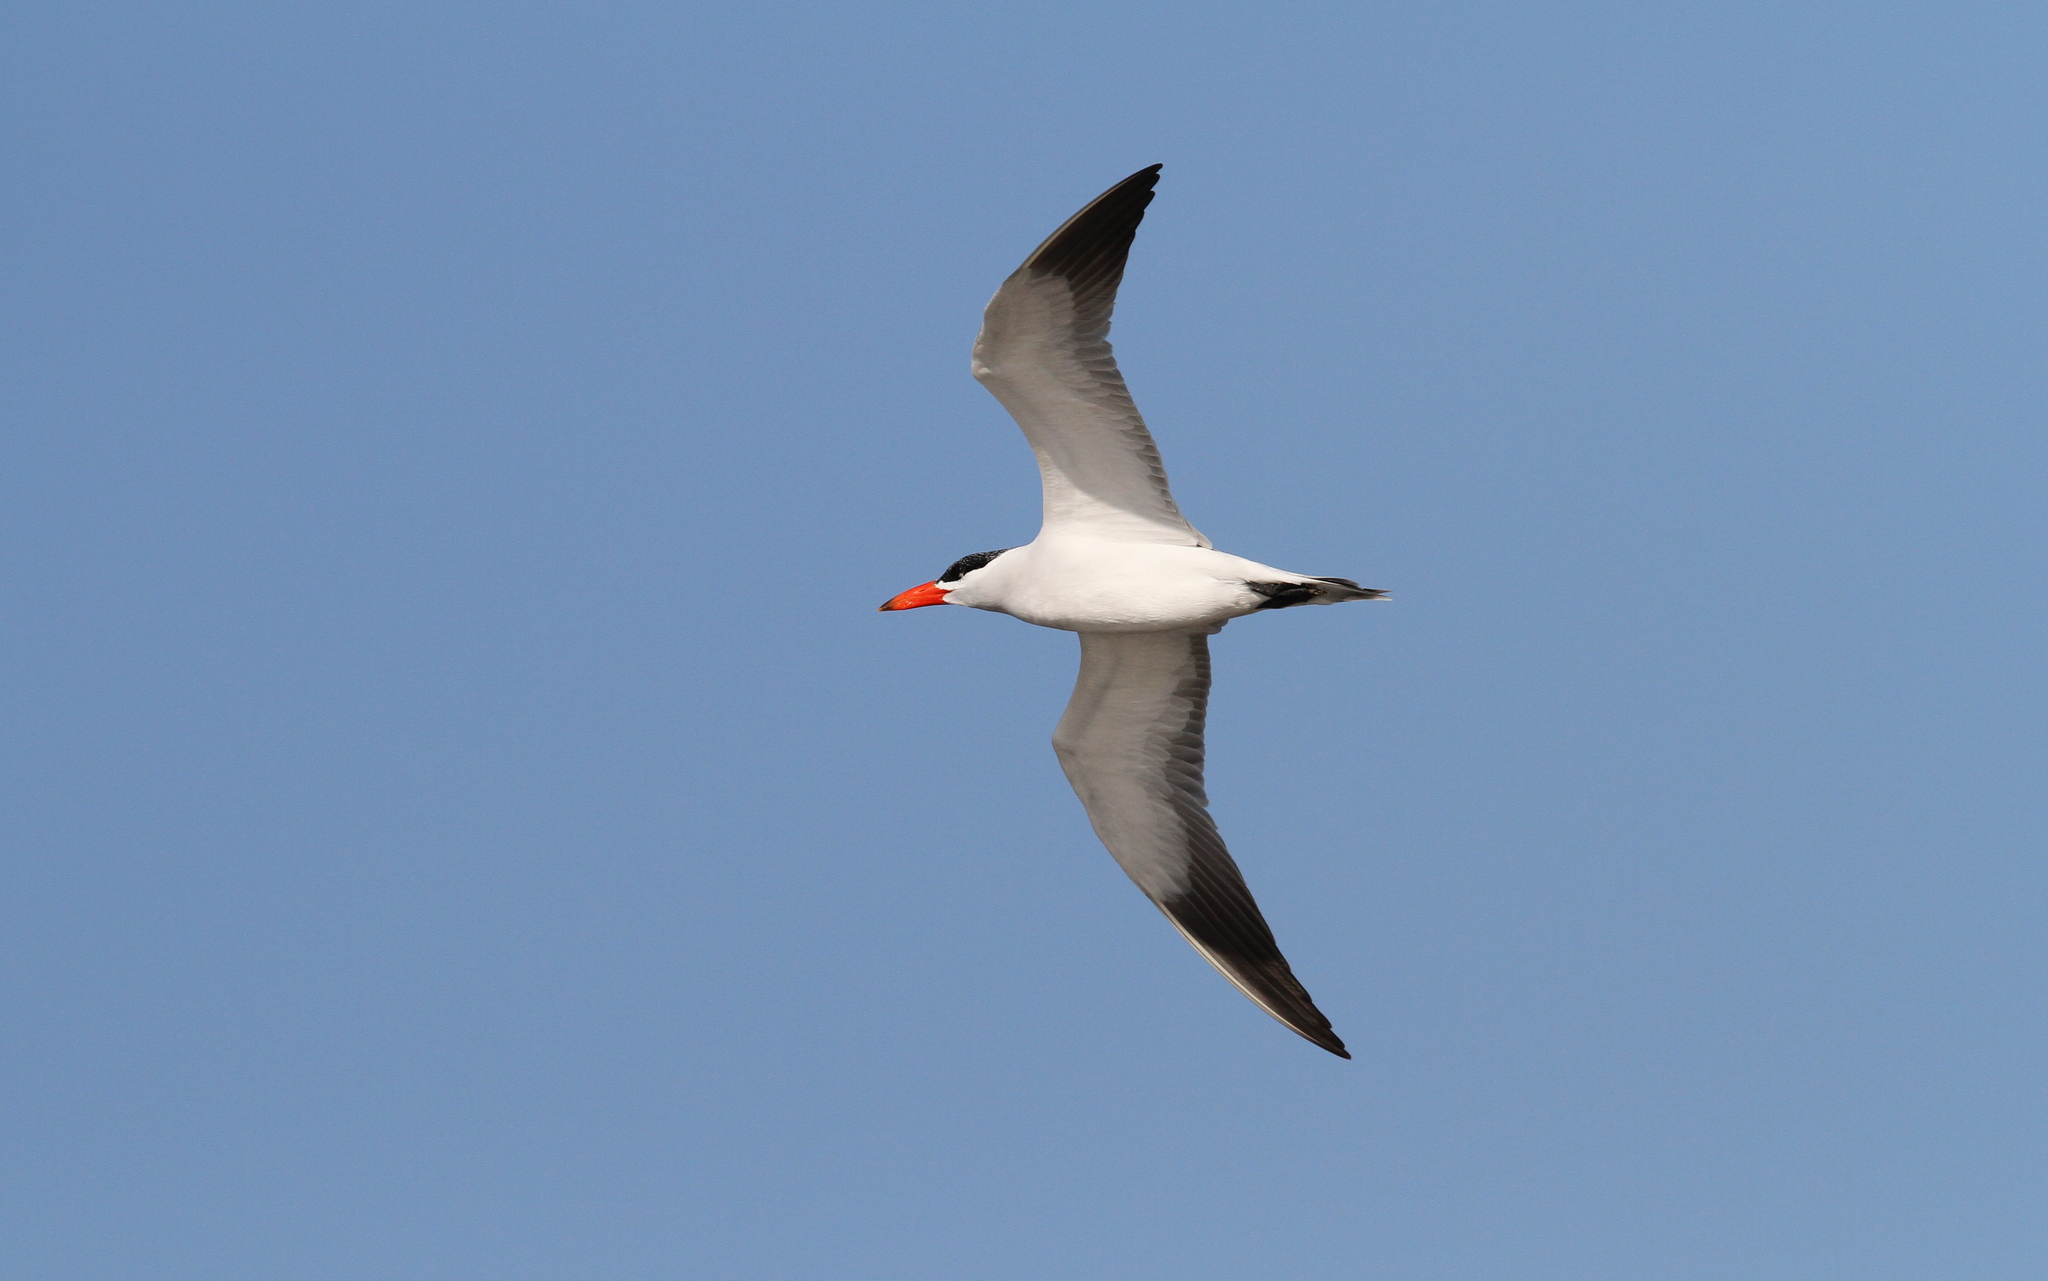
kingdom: Animalia
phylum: Chordata
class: Aves
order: Charadriiformes
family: Laridae
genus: Hydroprogne
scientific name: Hydroprogne caspia
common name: Caspian tern
